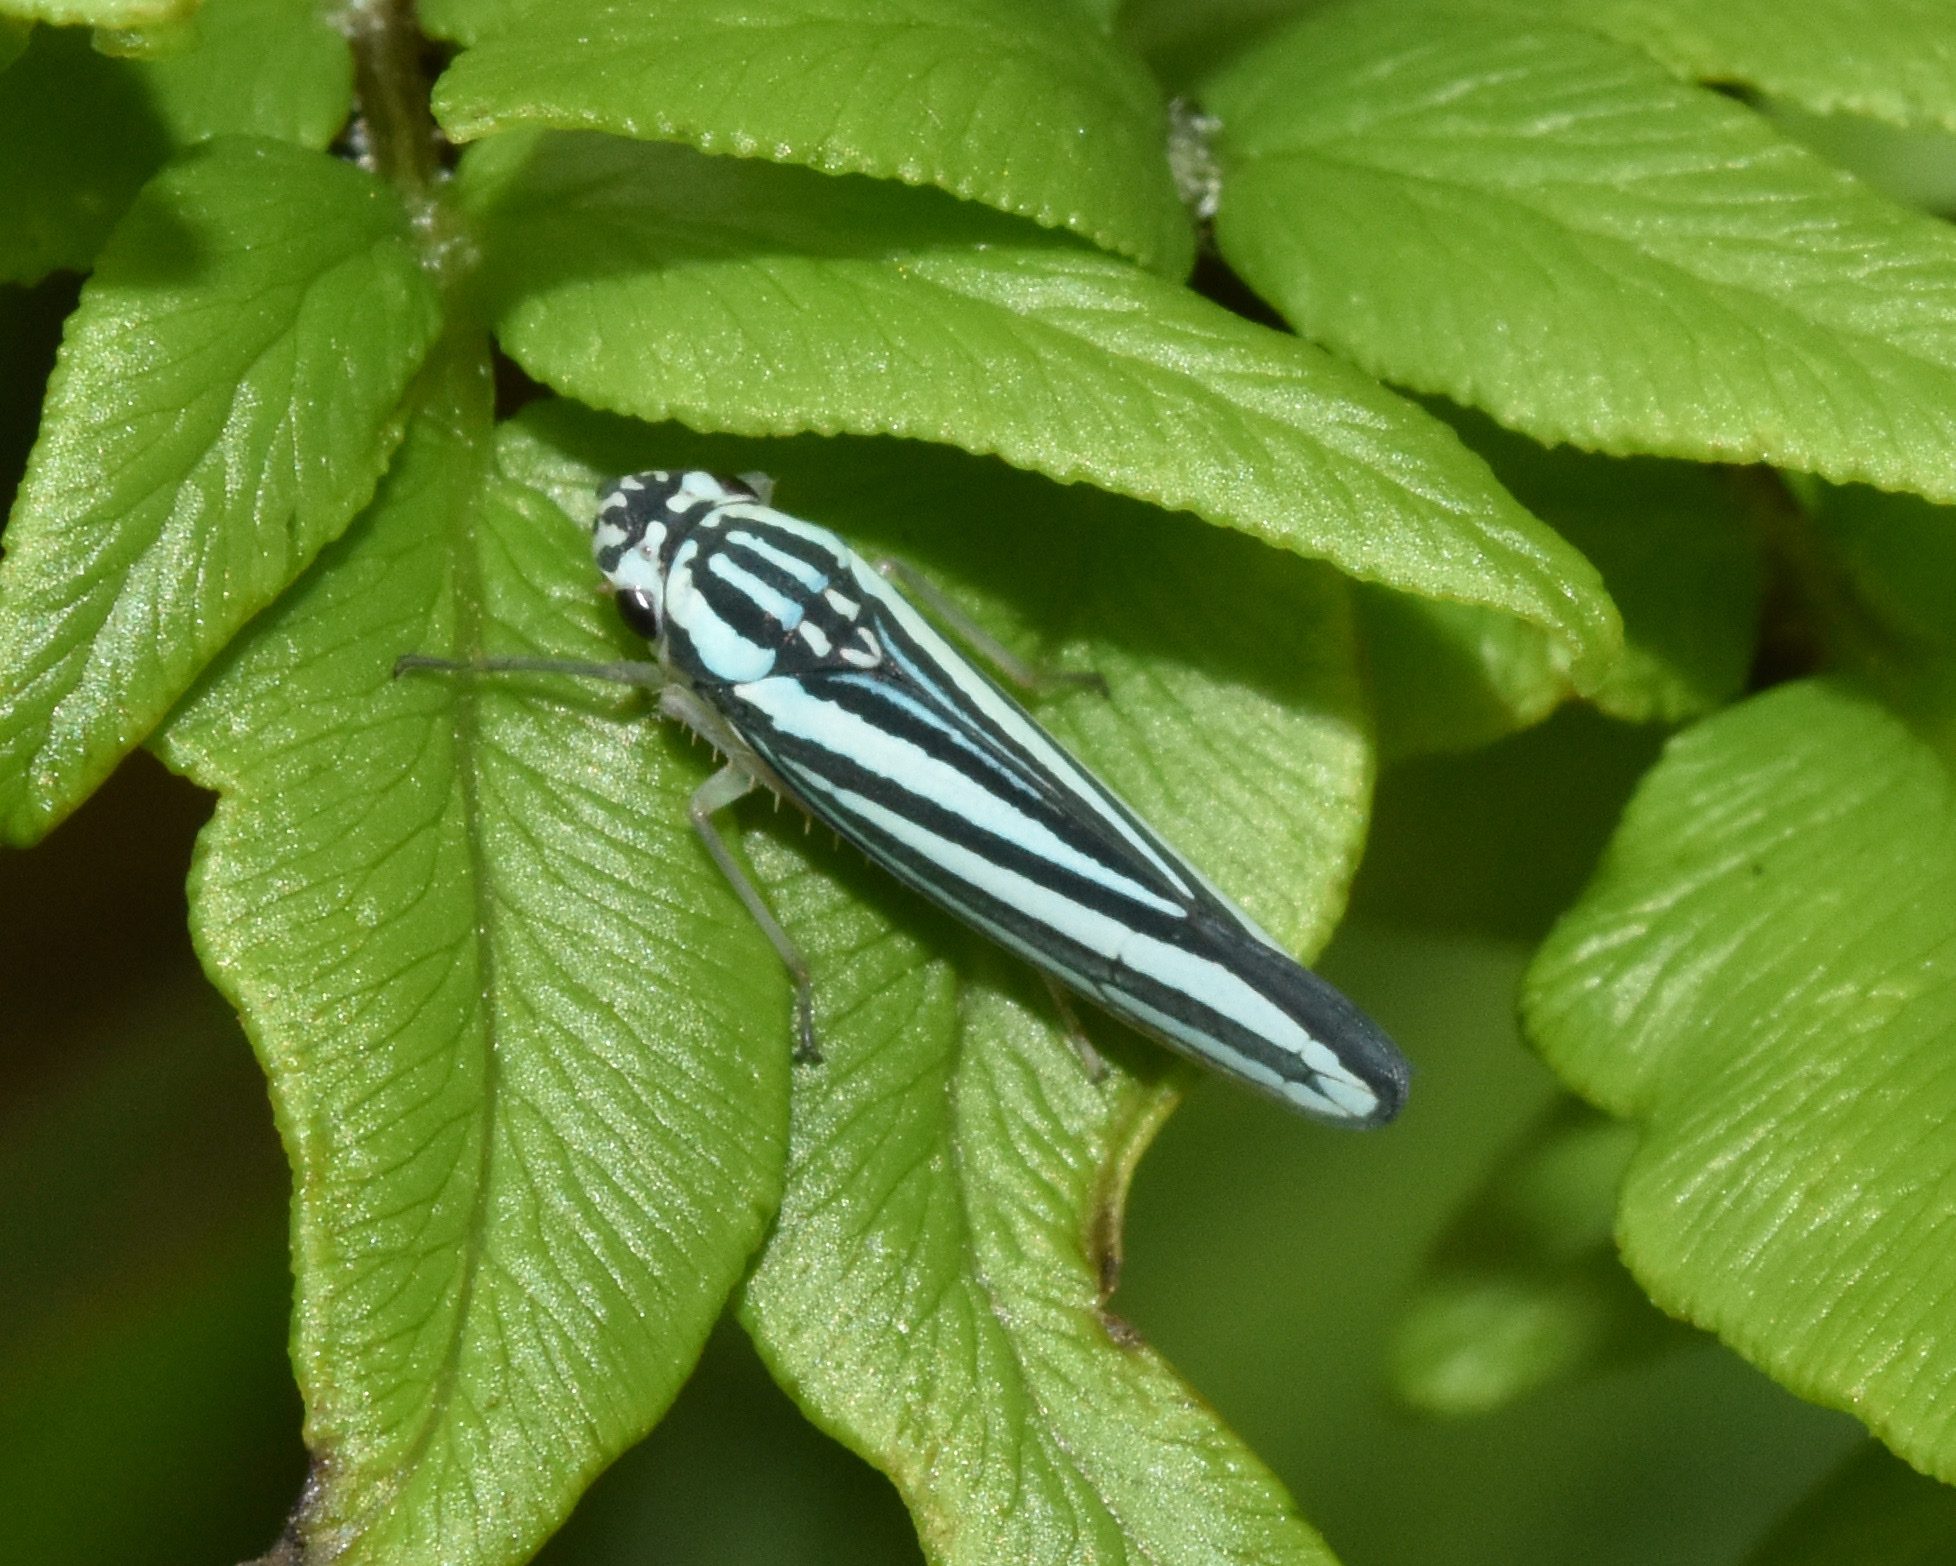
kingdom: Animalia
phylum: Arthropoda
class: Insecta
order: Hemiptera
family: Cicadellidae
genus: Tettigoniella
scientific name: Tettigoniella cosmopolita
